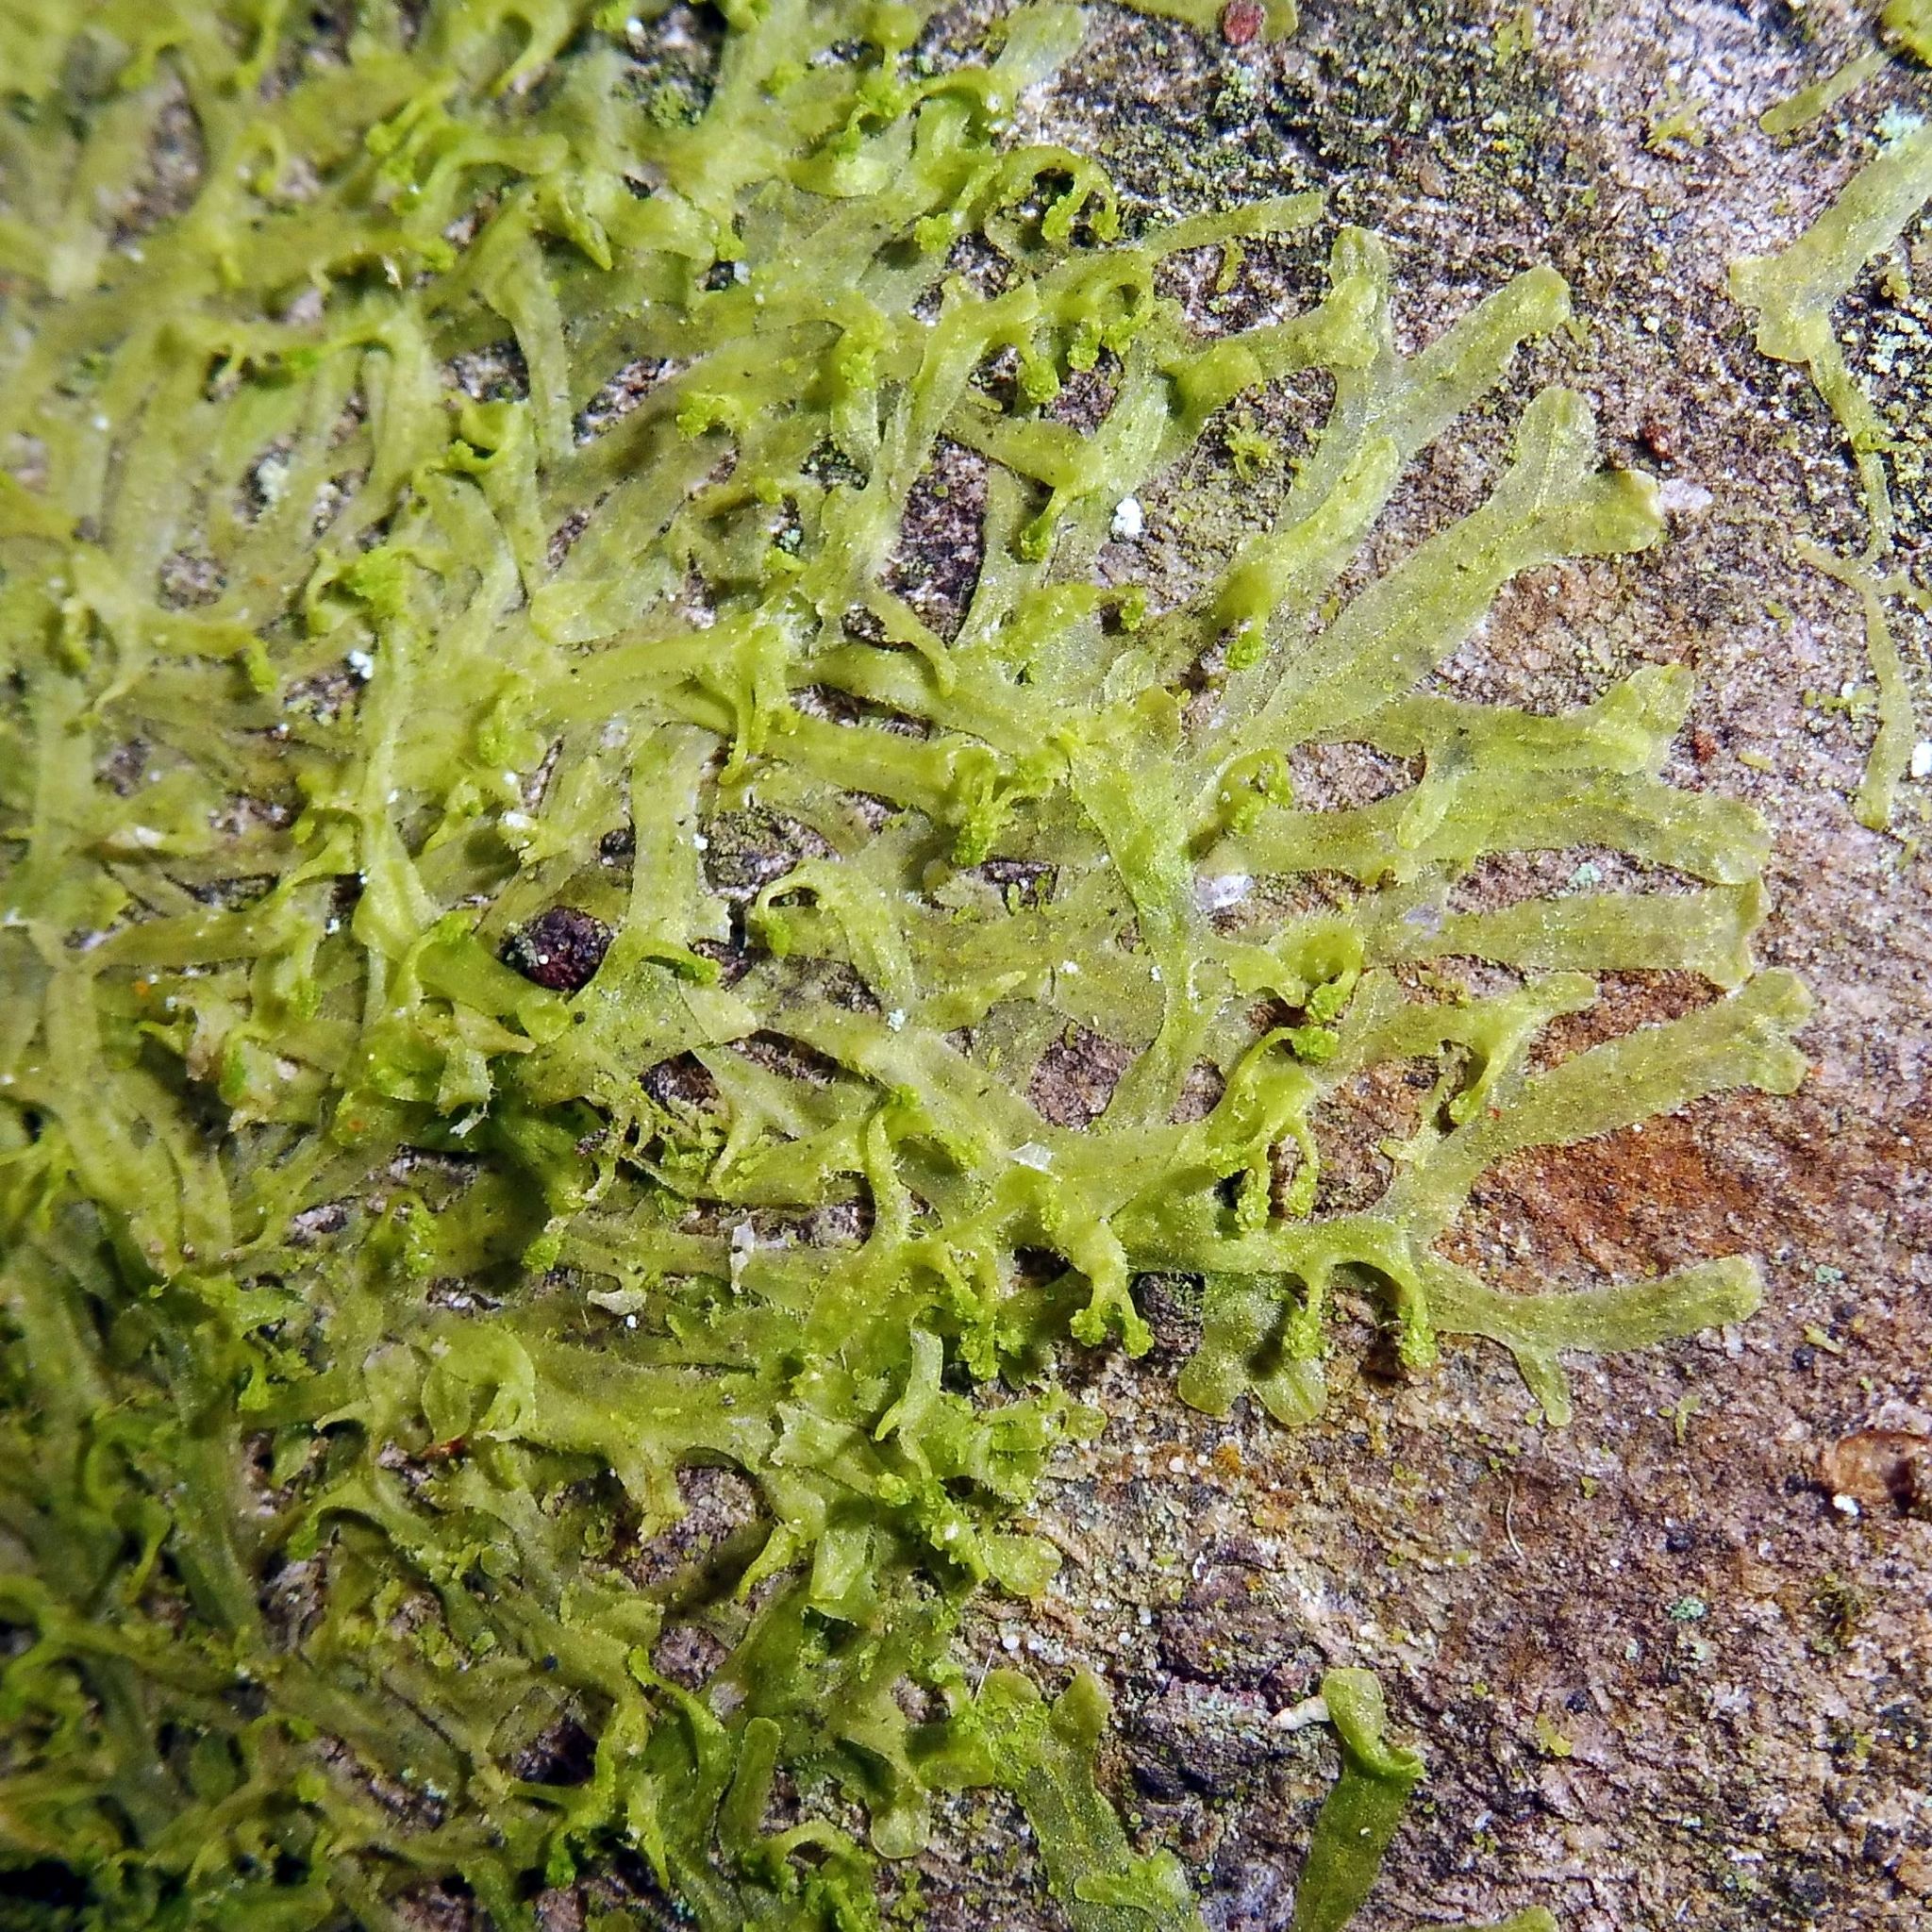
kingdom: Plantae
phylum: Marchantiophyta
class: Jungermanniopsida
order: Metzgeriales
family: Metzgeriaceae
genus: Metzgeria
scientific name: Metzgeria violacea
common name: Blueish veilwort
